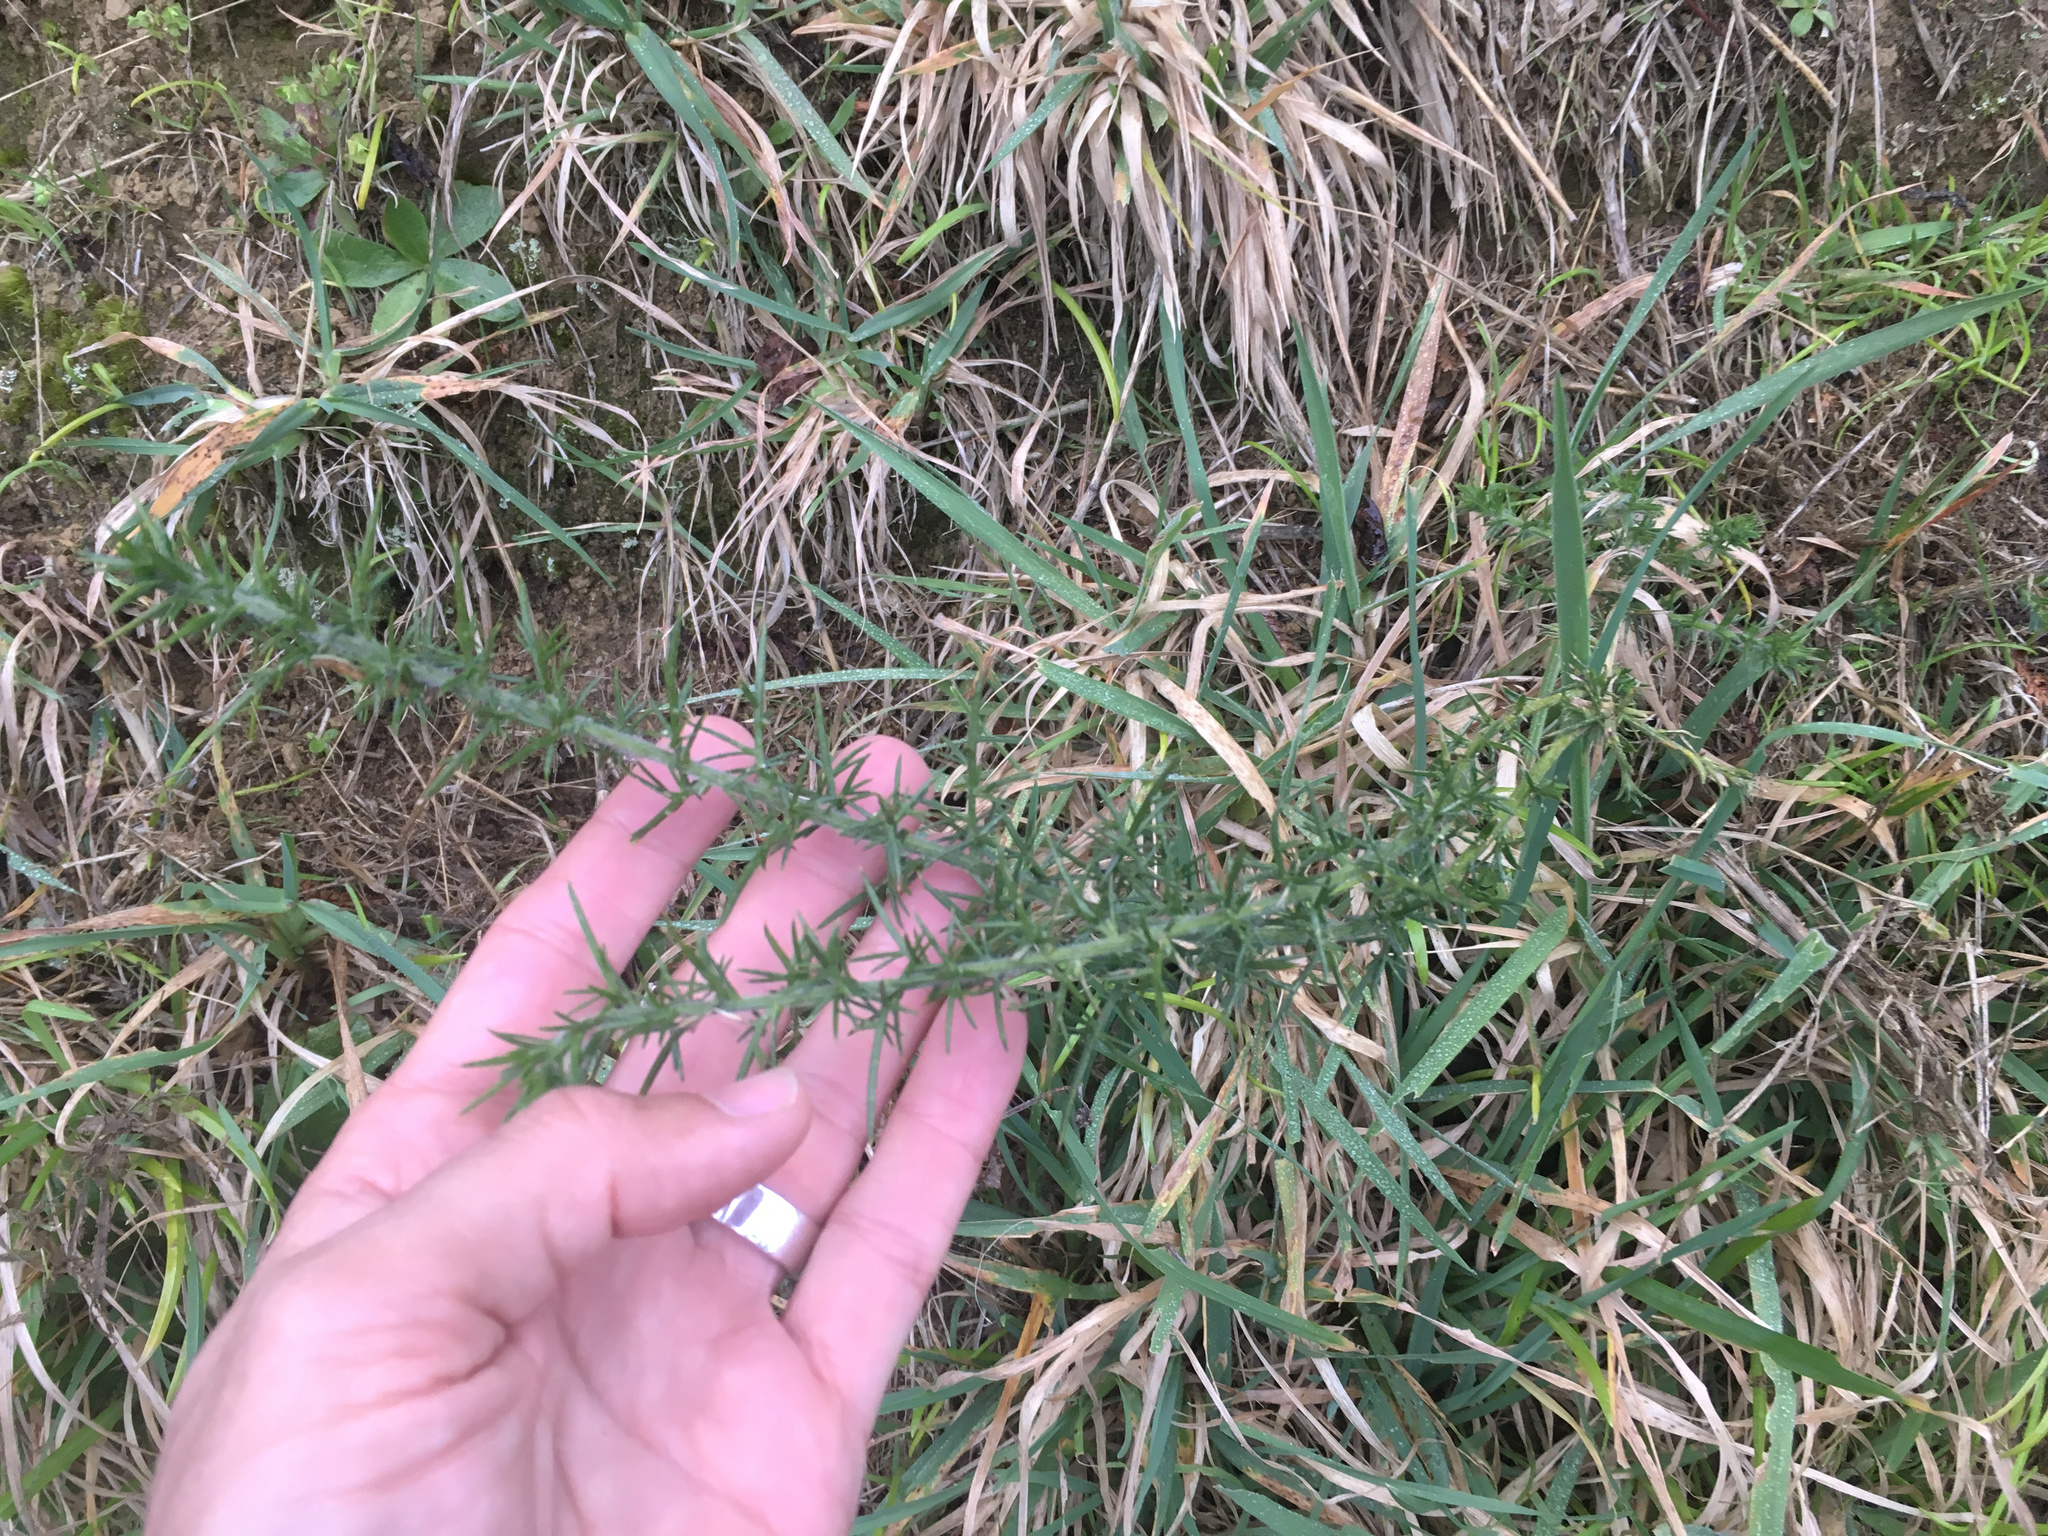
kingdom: Plantae
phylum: Tracheophyta
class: Magnoliopsida
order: Fabales
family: Fabaceae
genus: Ulex
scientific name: Ulex europaeus
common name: Common gorse
